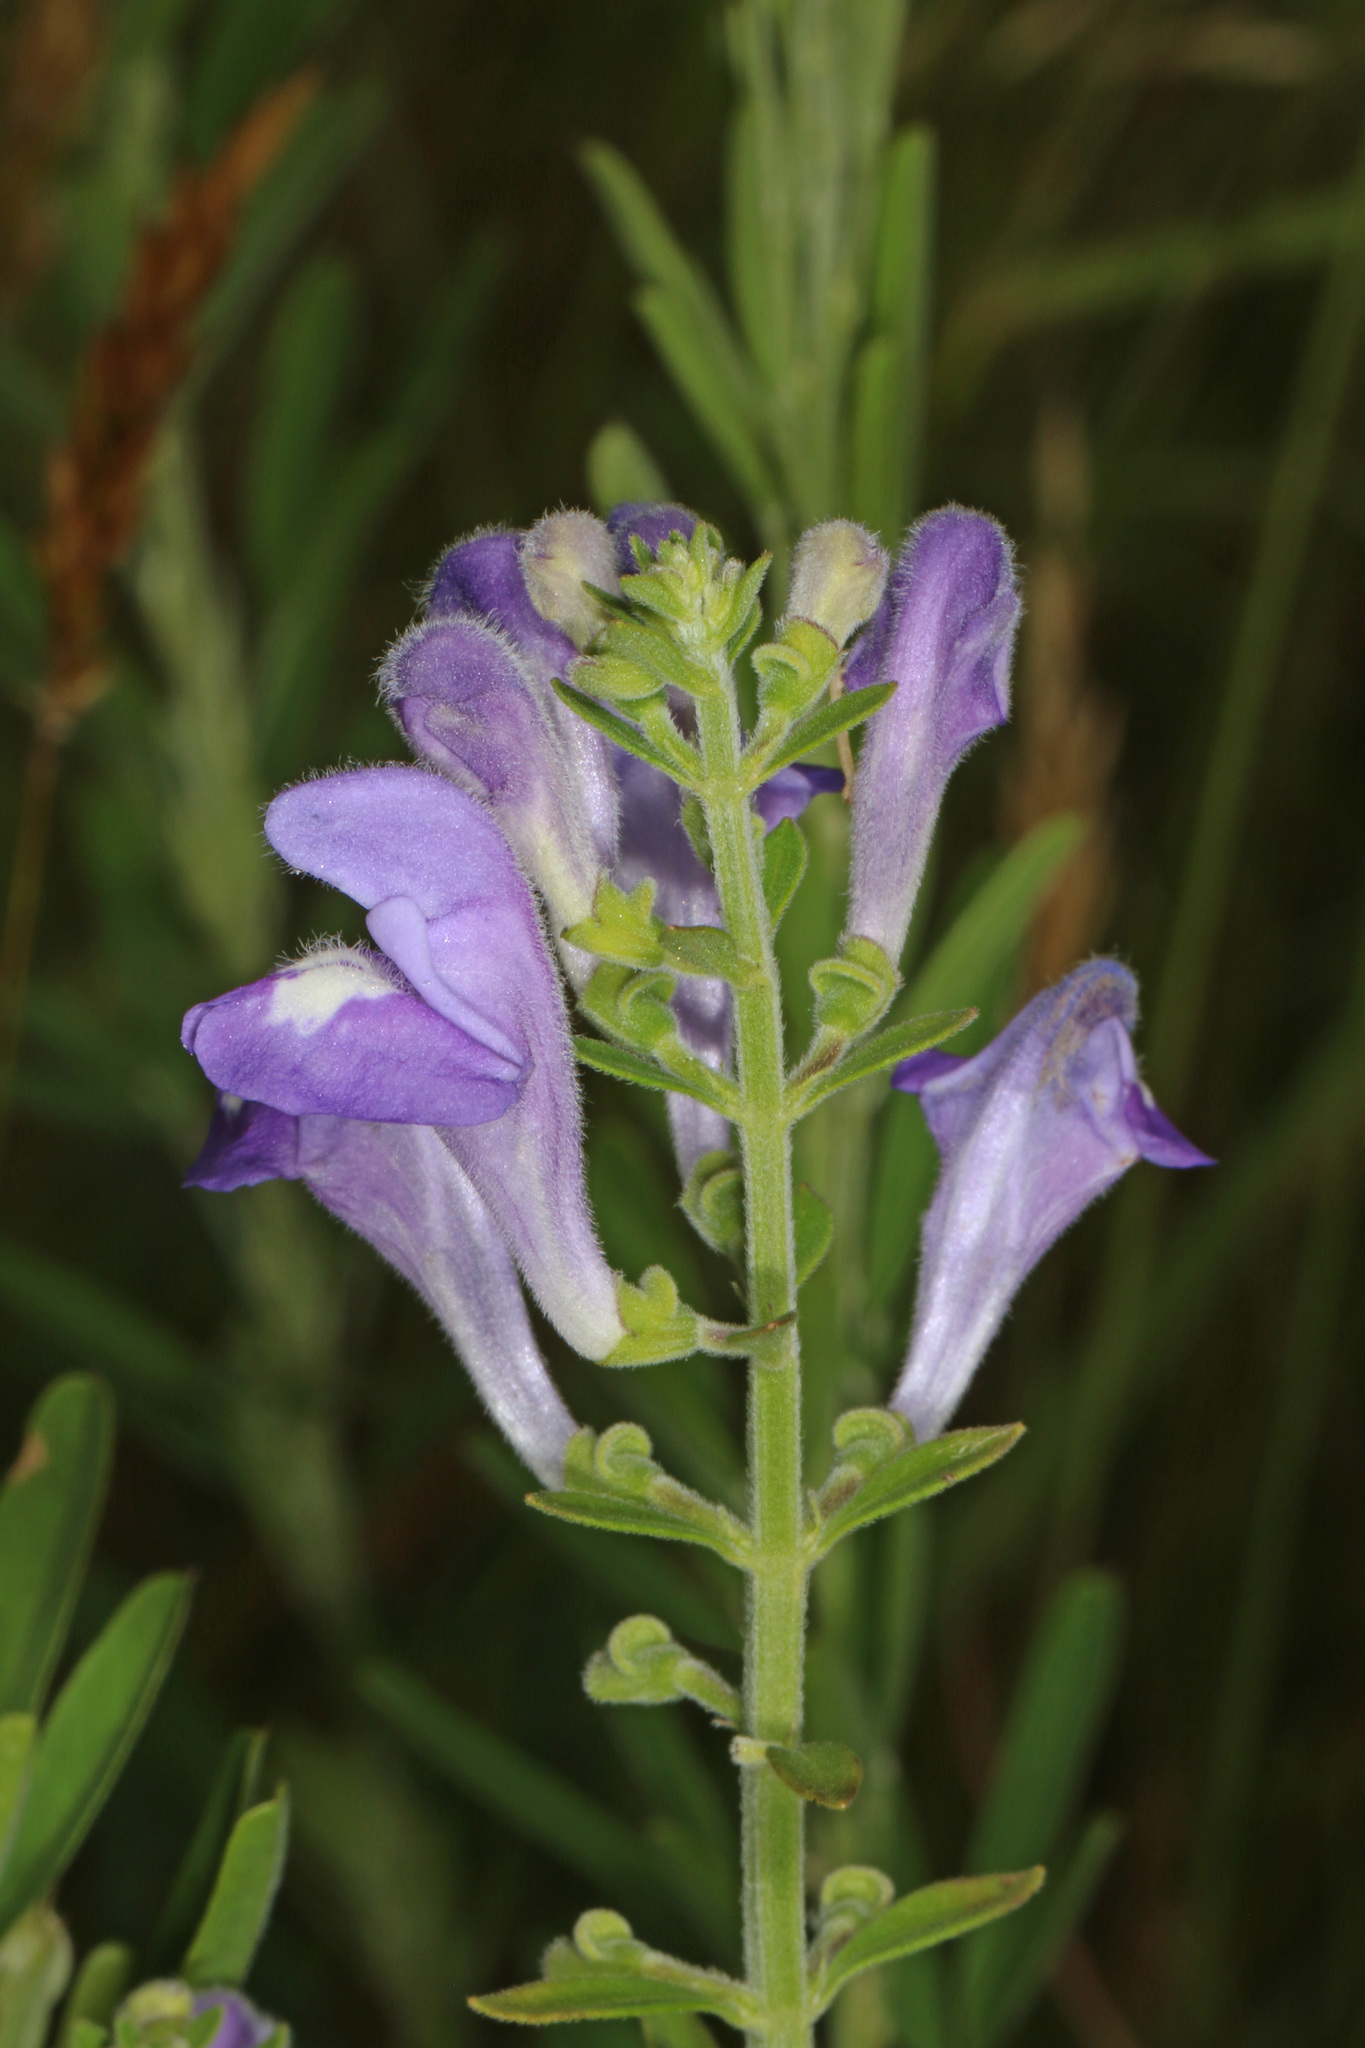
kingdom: Plantae
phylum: Tracheophyta
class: Magnoliopsida
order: Lamiales
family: Lamiaceae
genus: Scutellaria
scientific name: Scutellaria integrifolia
